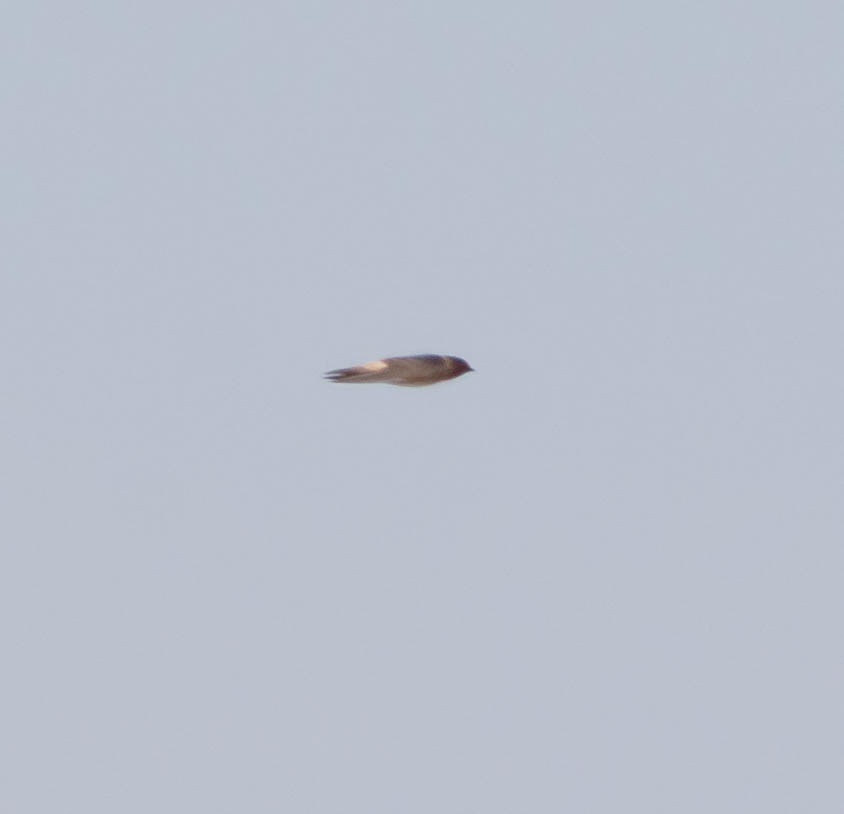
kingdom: Animalia
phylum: Chordata
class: Aves
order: Passeriformes
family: Hirundinidae
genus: Petrochelidon
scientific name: Petrochelidon
